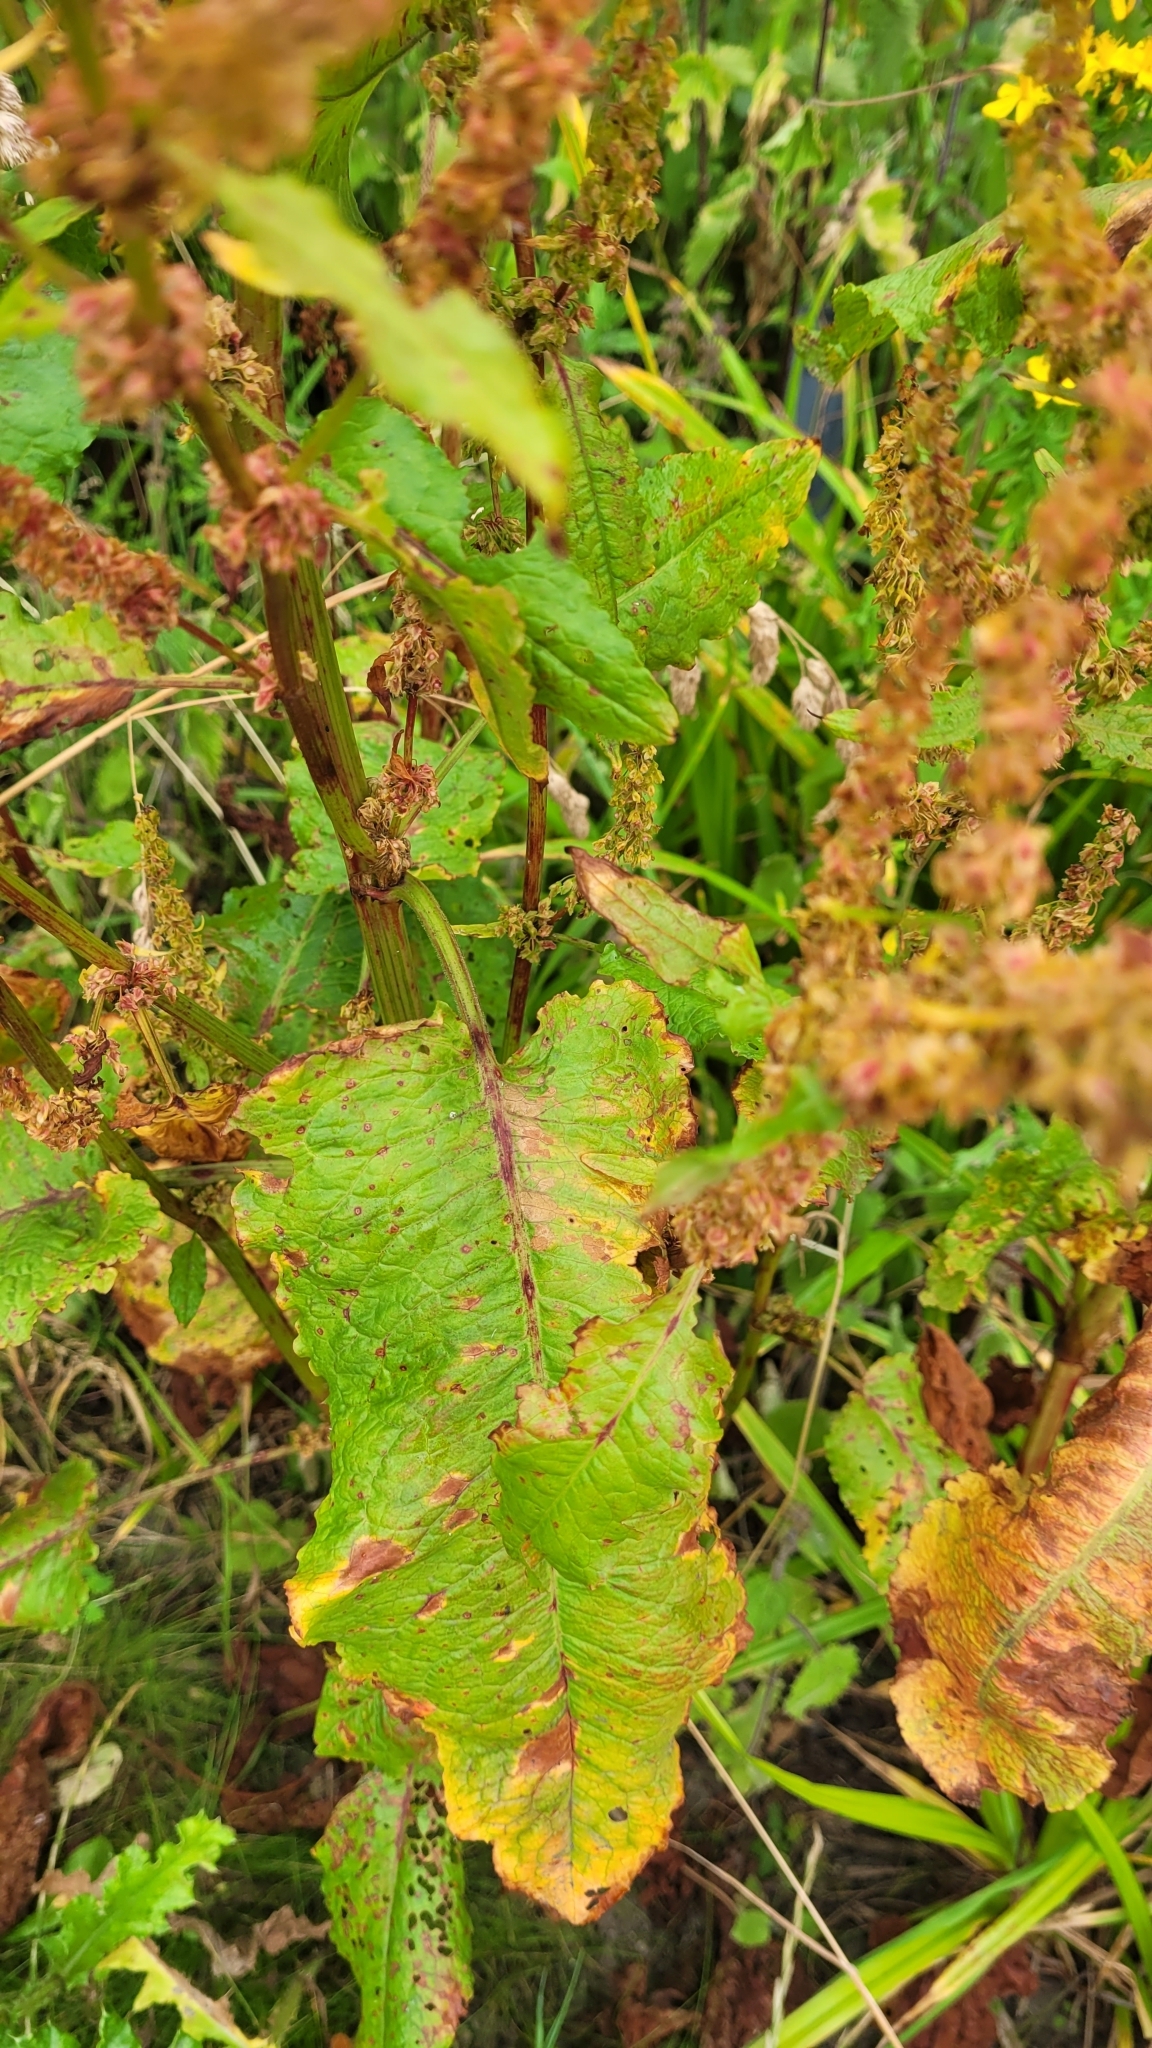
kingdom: Plantae
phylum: Tracheophyta
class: Magnoliopsida
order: Caryophyllales
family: Polygonaceae
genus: Rumex
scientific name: Rumex obtusifolius
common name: Bitter dock
